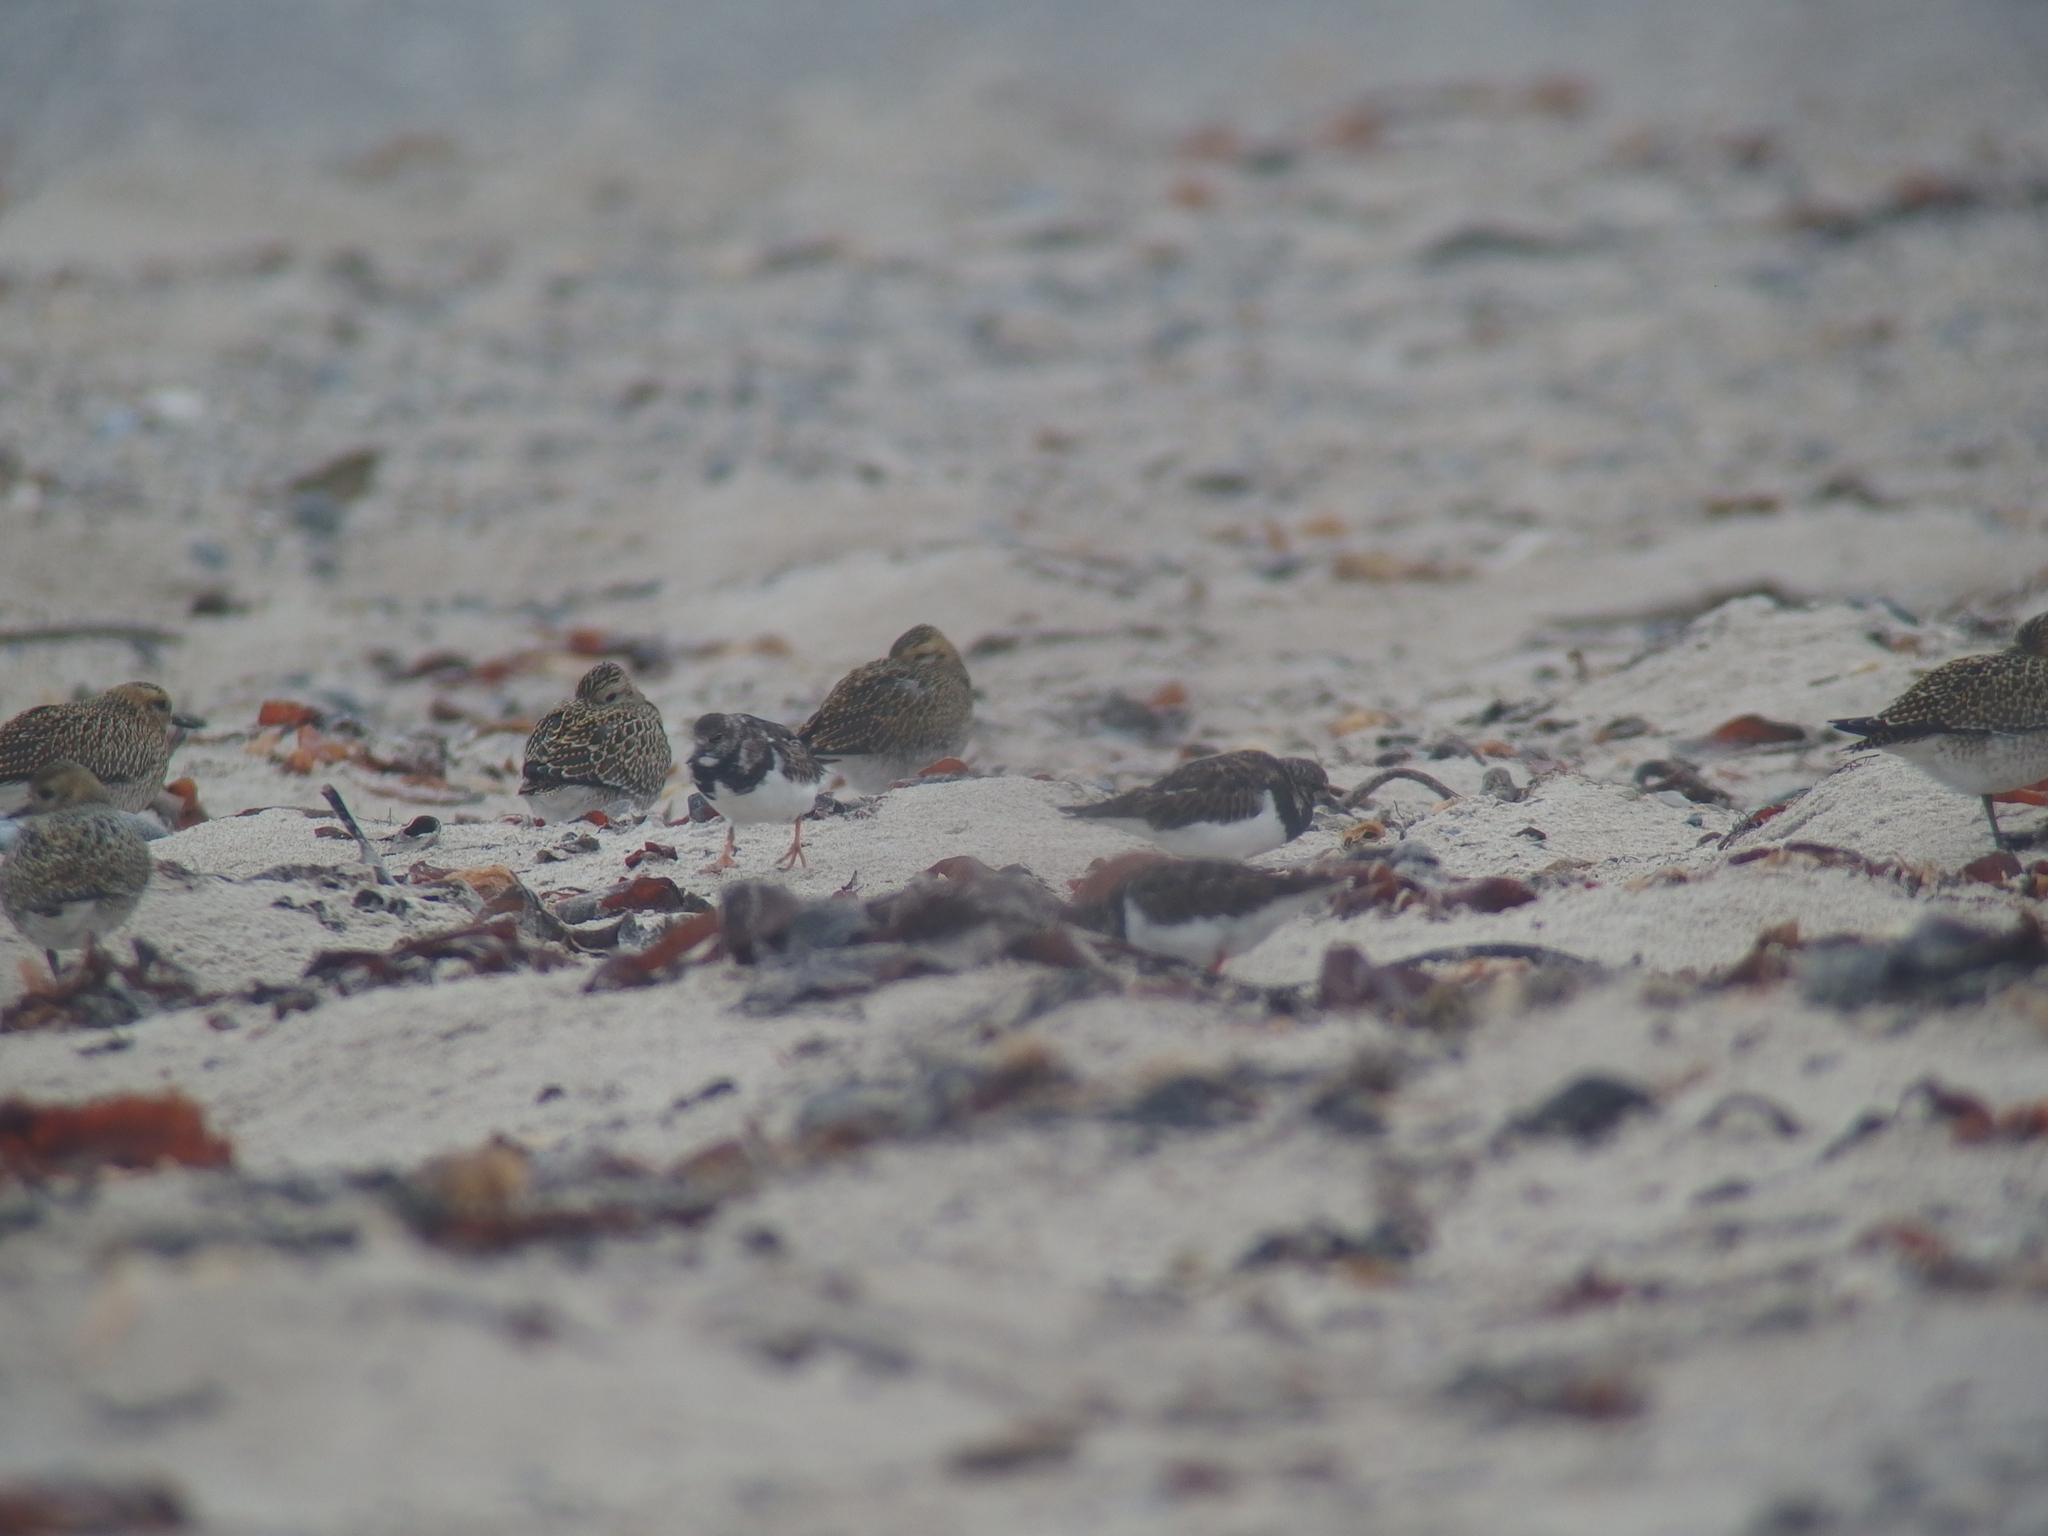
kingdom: Animalia
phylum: Chordata
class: Aves
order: Charadriiformes
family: Charadriidae
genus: Pluvialis
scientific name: Pluvialis apricaria
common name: European golden plover
